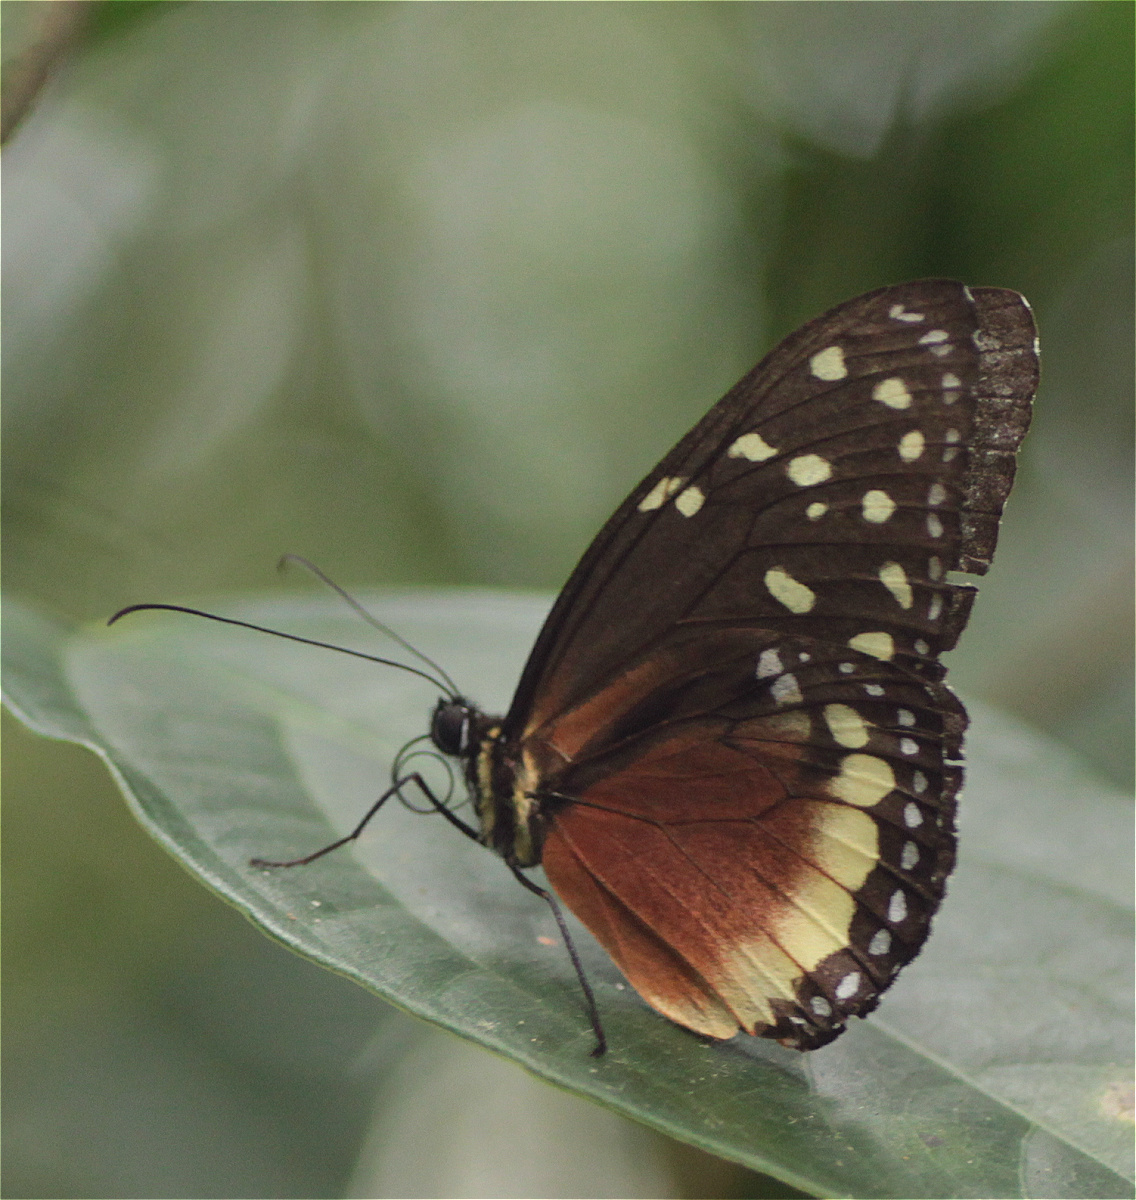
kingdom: Animalia
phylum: Arthropoda
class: Insecta
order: Lepidoptera
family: Nymphalidae
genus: Tithorea
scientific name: Tithorea tarricina
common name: Cream-spotted tigerwing
